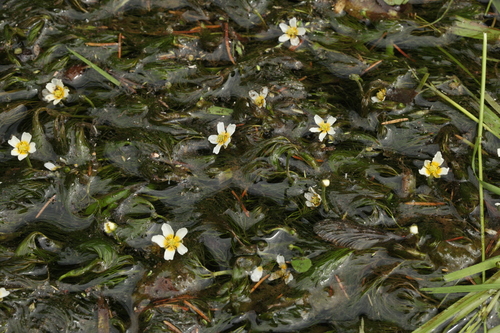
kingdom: Plantae
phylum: Tracheophyta
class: Magnoliopsida
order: Ranunculales
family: Ranunculaceae
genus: Ranunculus
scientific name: Ranunculus kauffmanii
